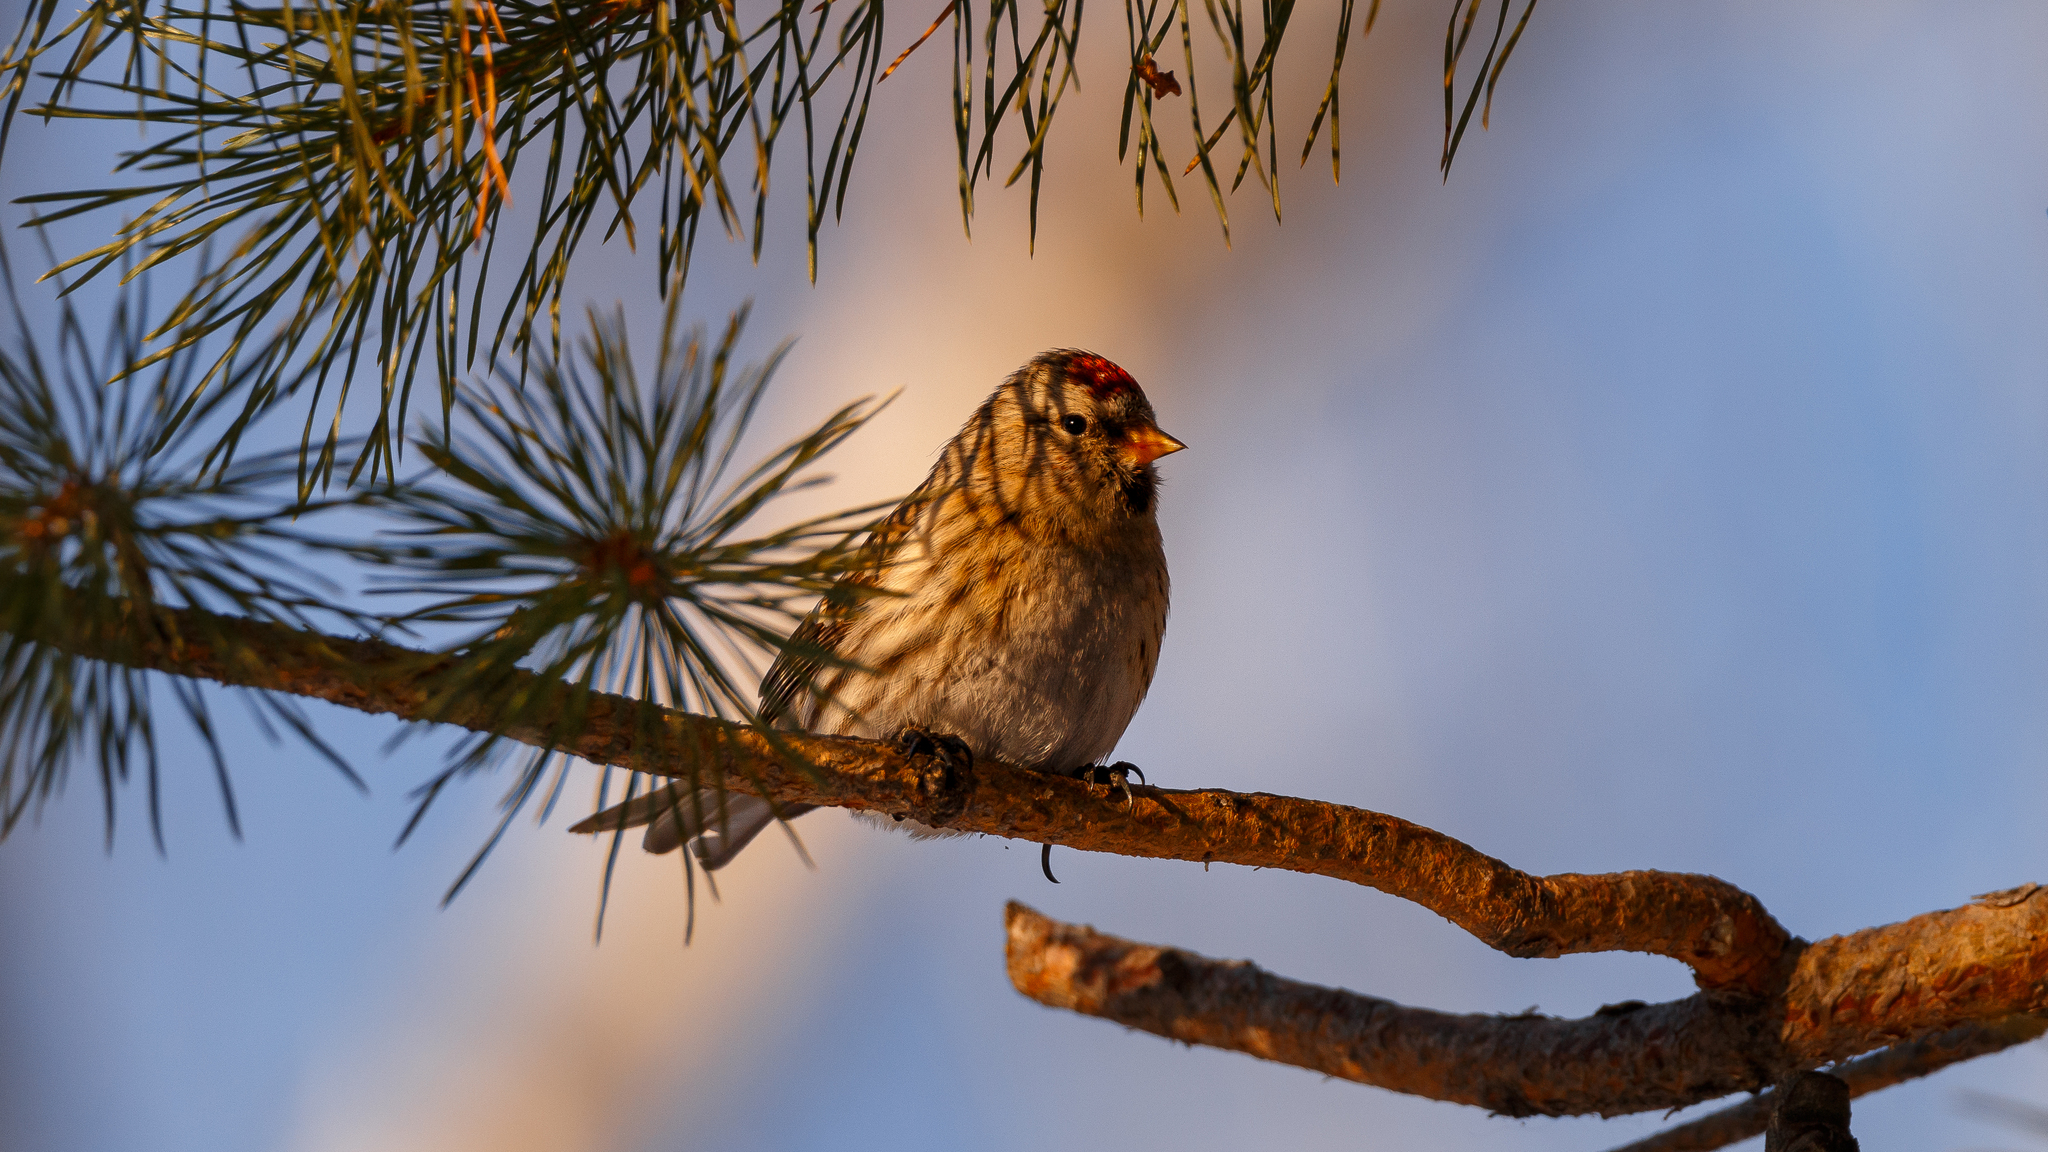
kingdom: Animalia
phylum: Chordata
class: Aves
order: Passeriformes
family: Fringillidae
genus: Acanthis
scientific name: Acanthis flammea
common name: Common redpoll
